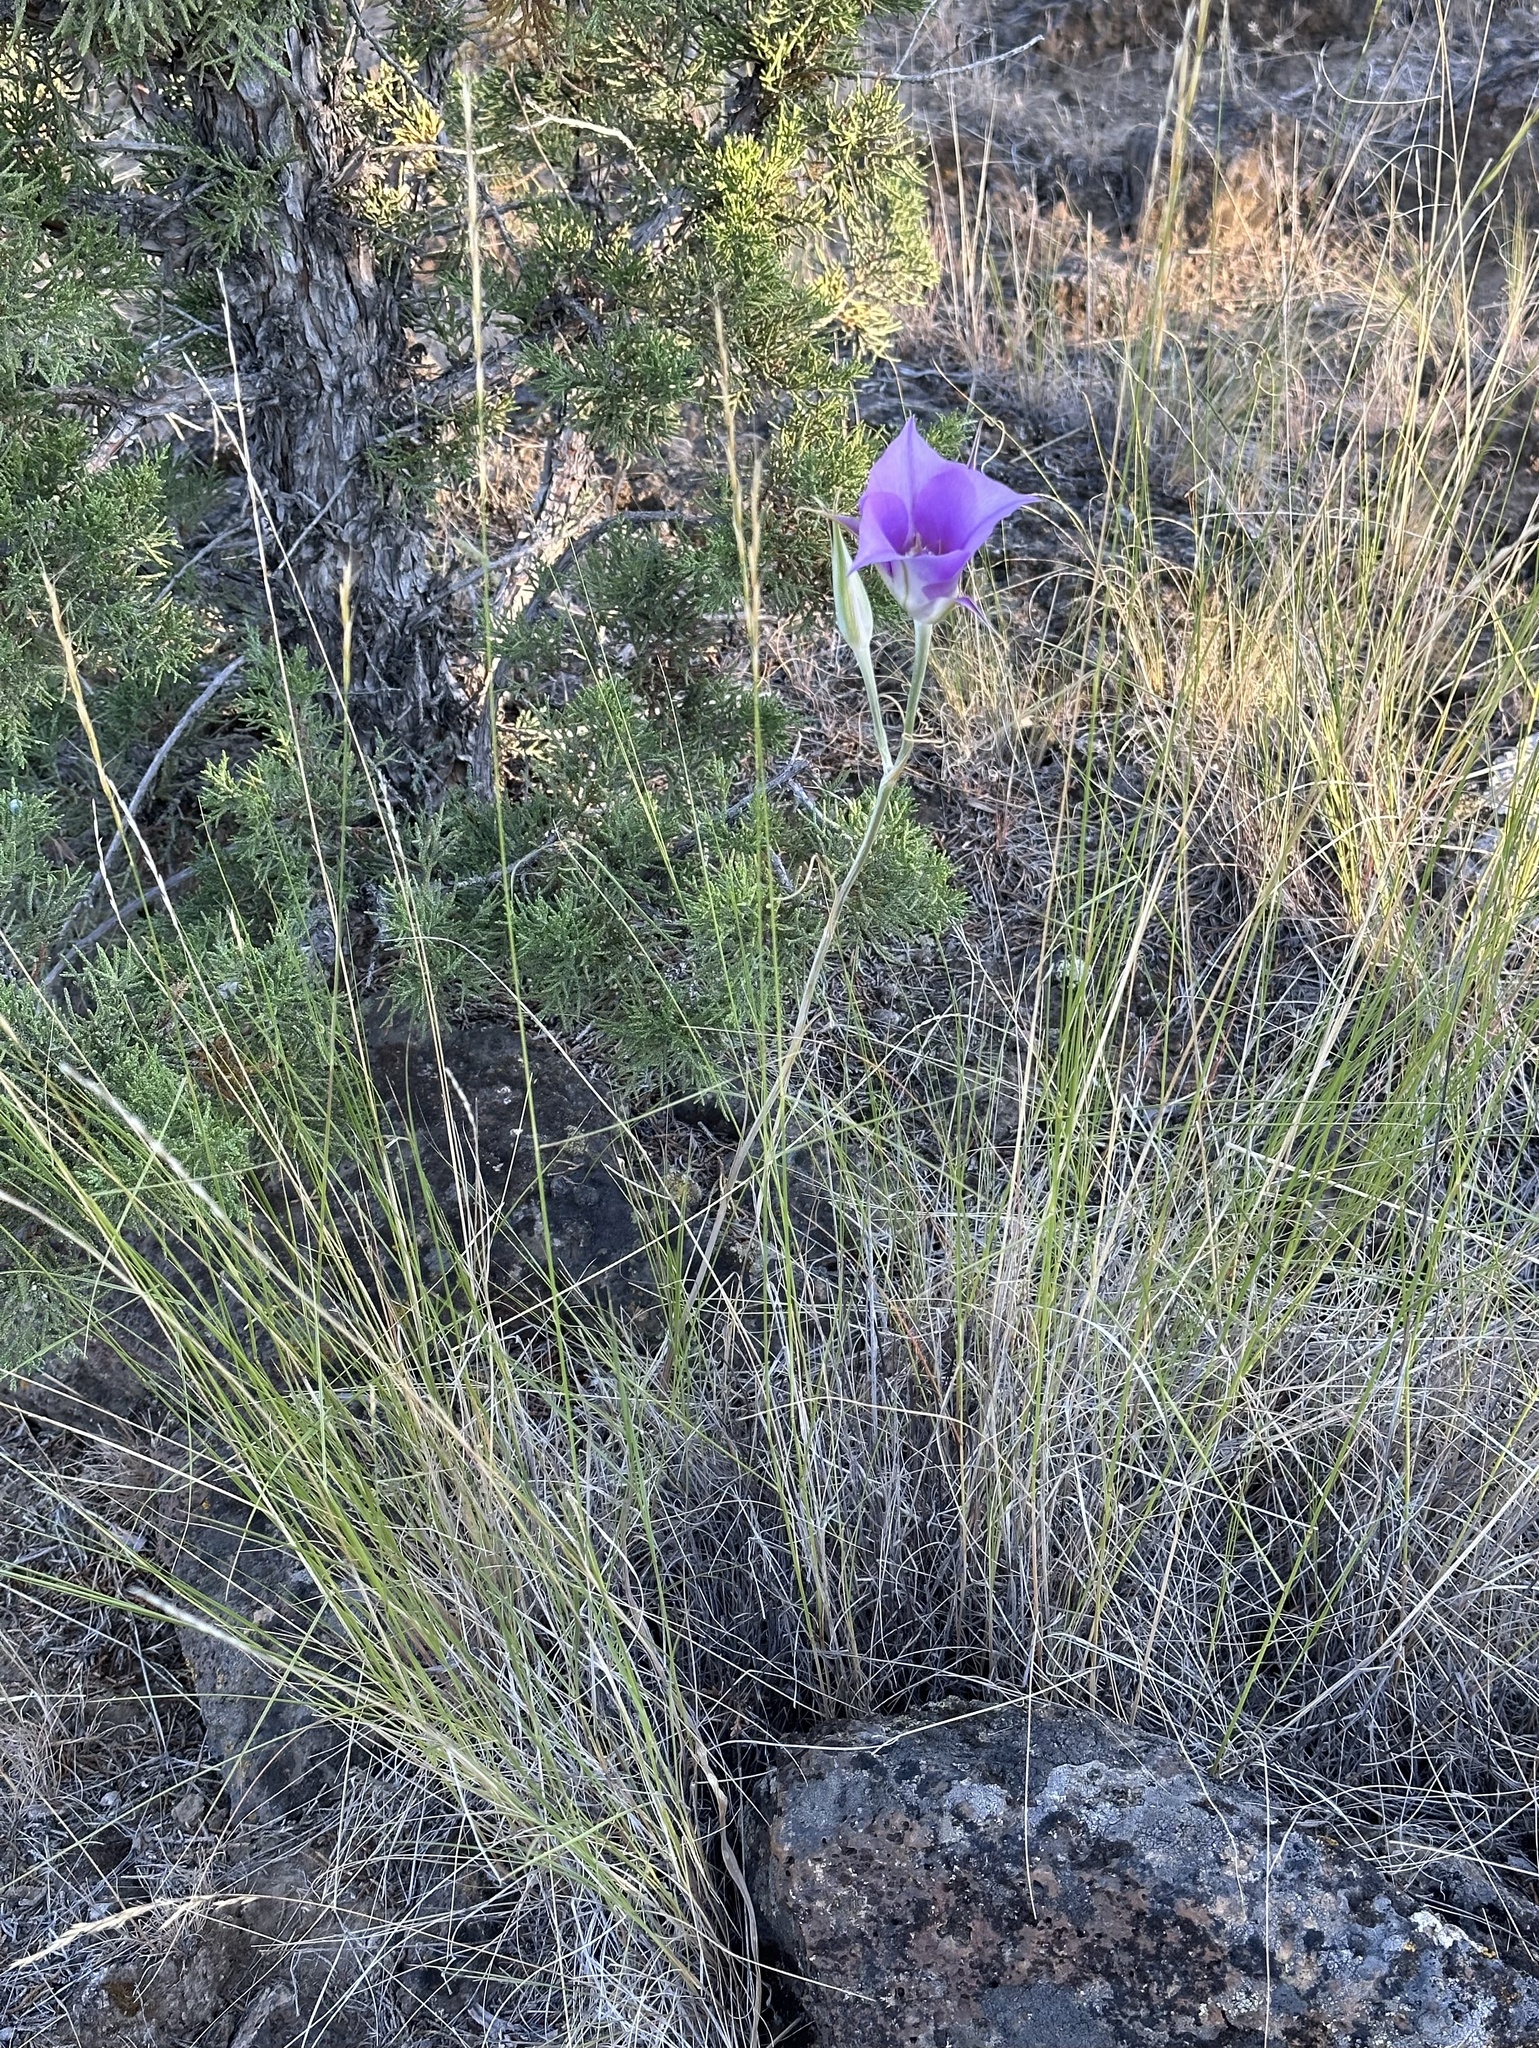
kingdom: Plantae
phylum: Tracheophyta
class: Liliopsida
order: Liliales
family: Liliaceae
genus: Calochortus
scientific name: Calochortus macrocarpus
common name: Green-band mariposa lily
